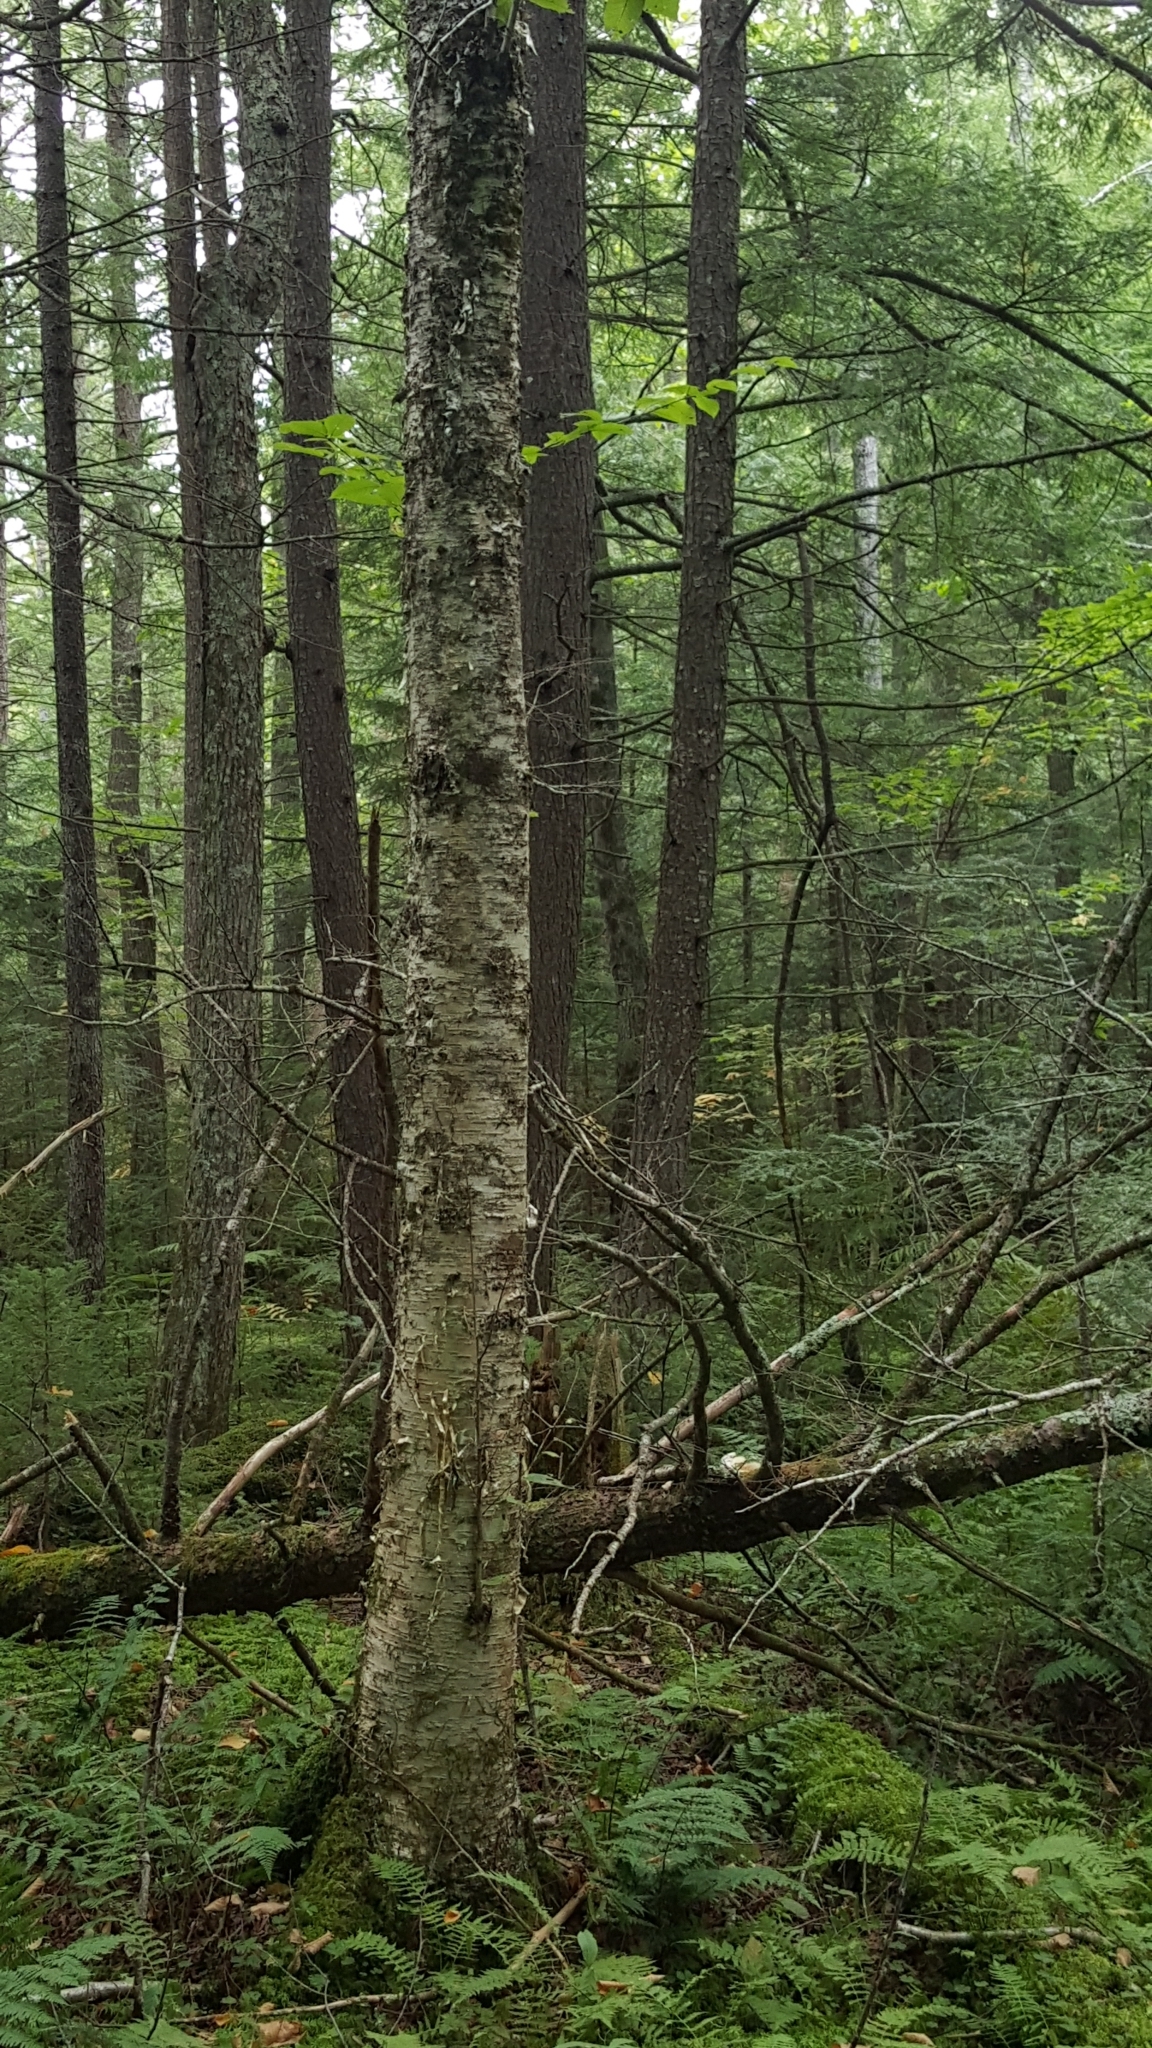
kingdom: Plantae
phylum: Tracheophyta
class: Magnoliopsida
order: Fagales
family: Betulaceae
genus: Betula
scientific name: Betula alleghaniensis
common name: Yellow birch
